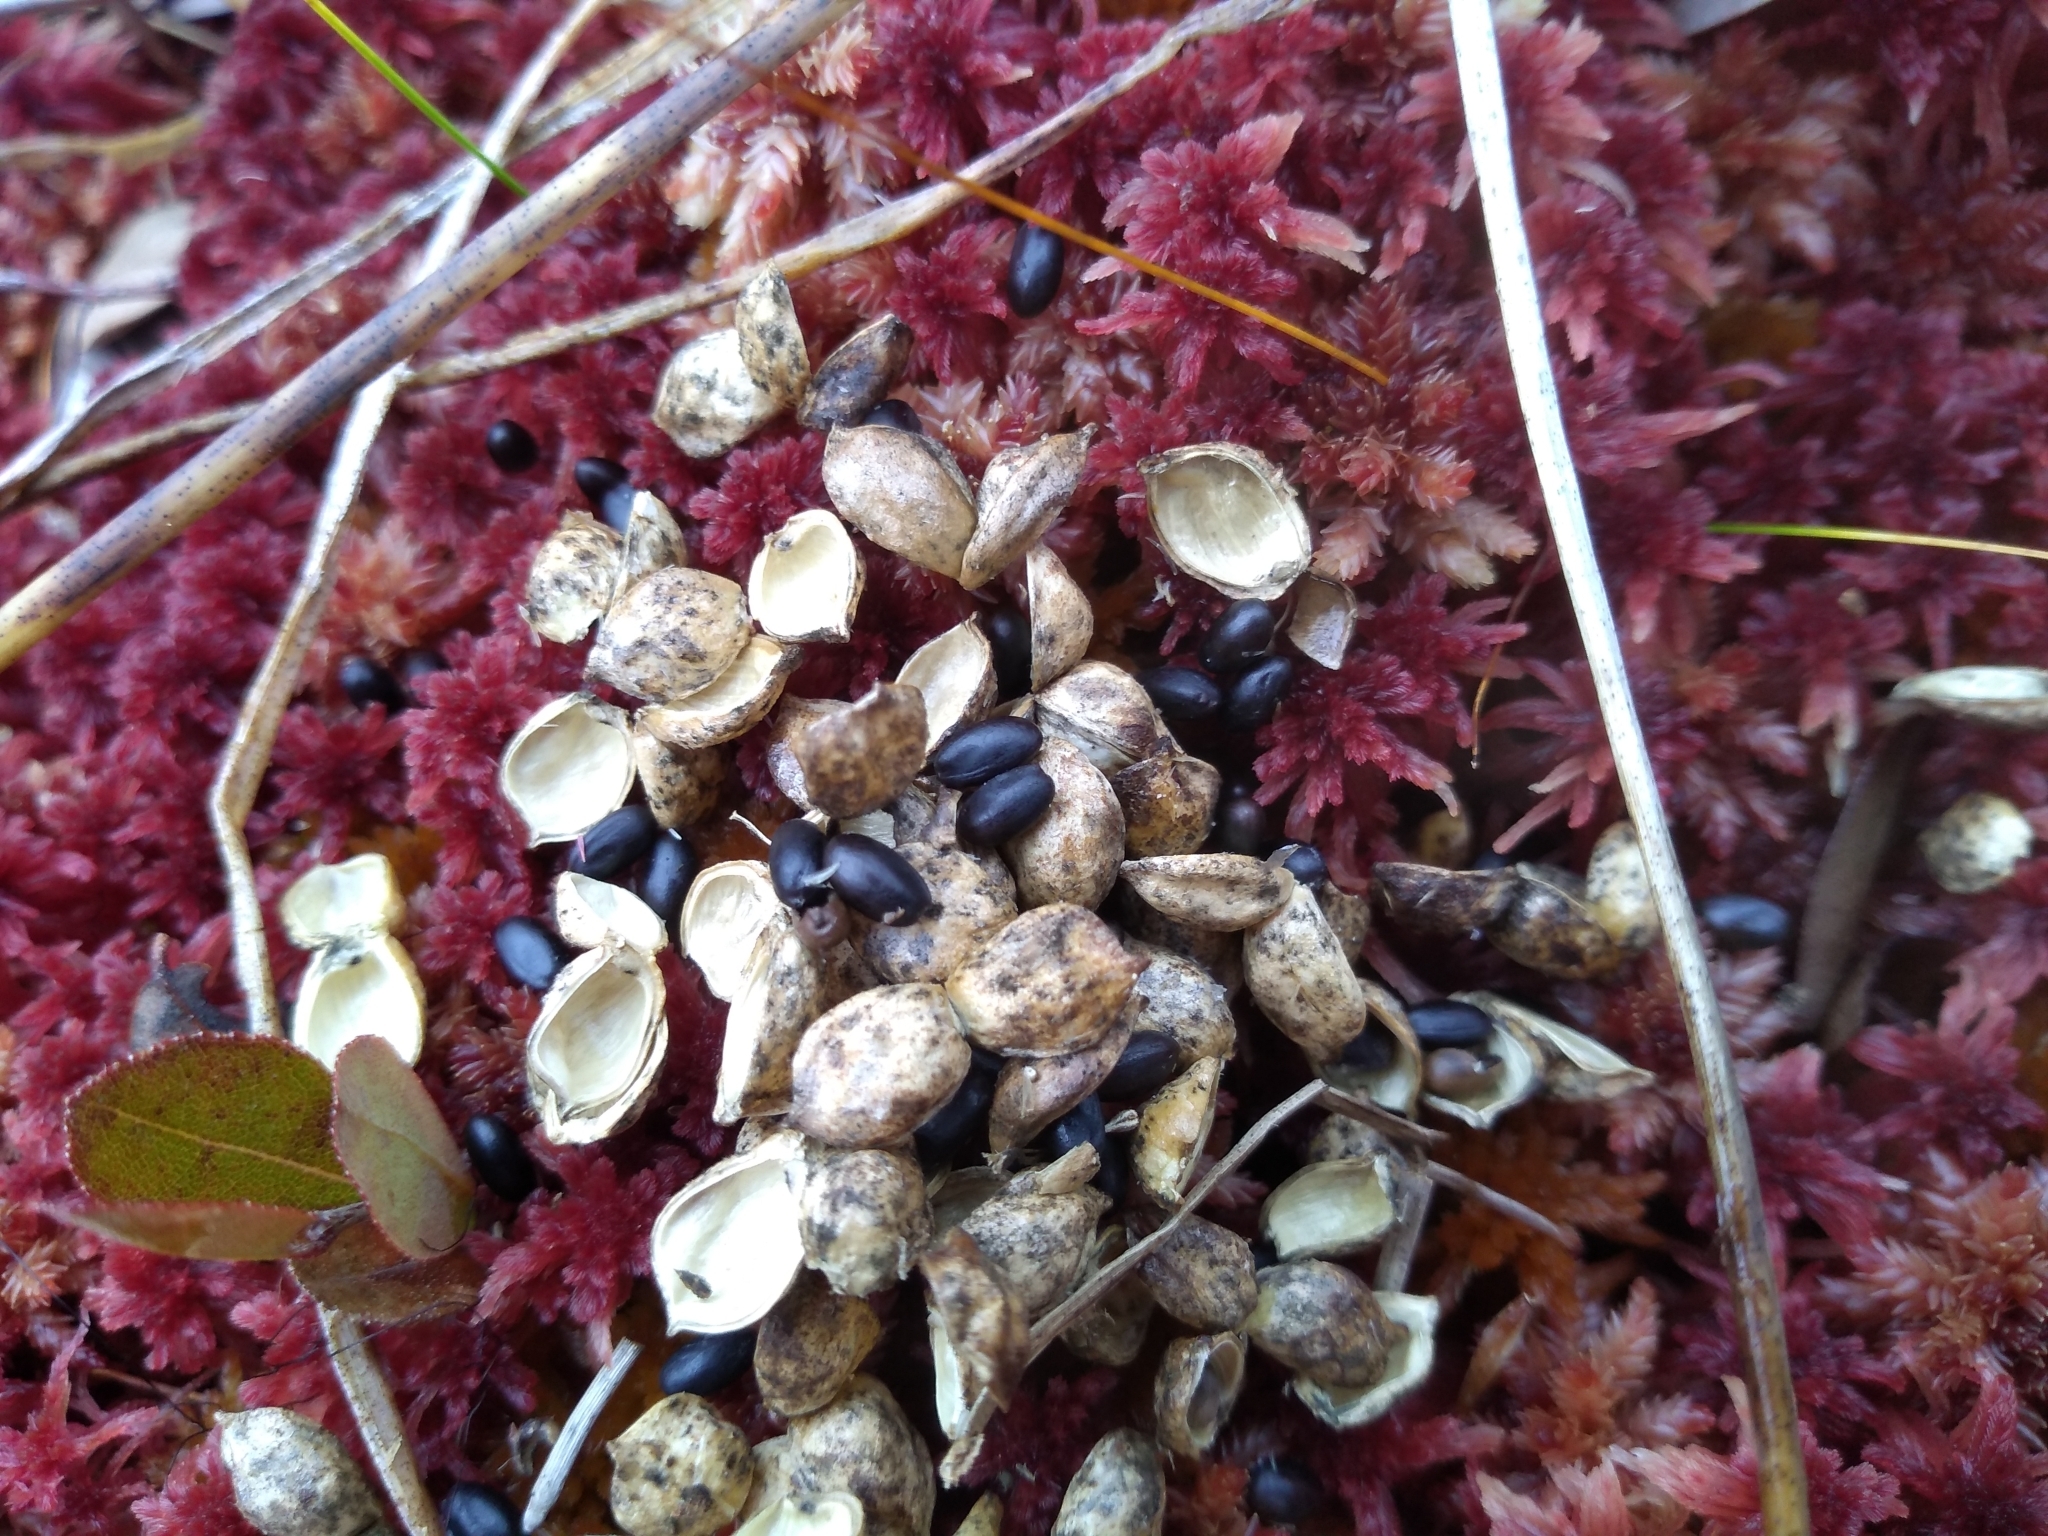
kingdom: Plantae
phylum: Tracheophyta
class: Liliopsida
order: Alismatales
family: Scheuchzeriaceae
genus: Scheuchzeria
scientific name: Scheuchzeria palustris
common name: Rannoch-rush
